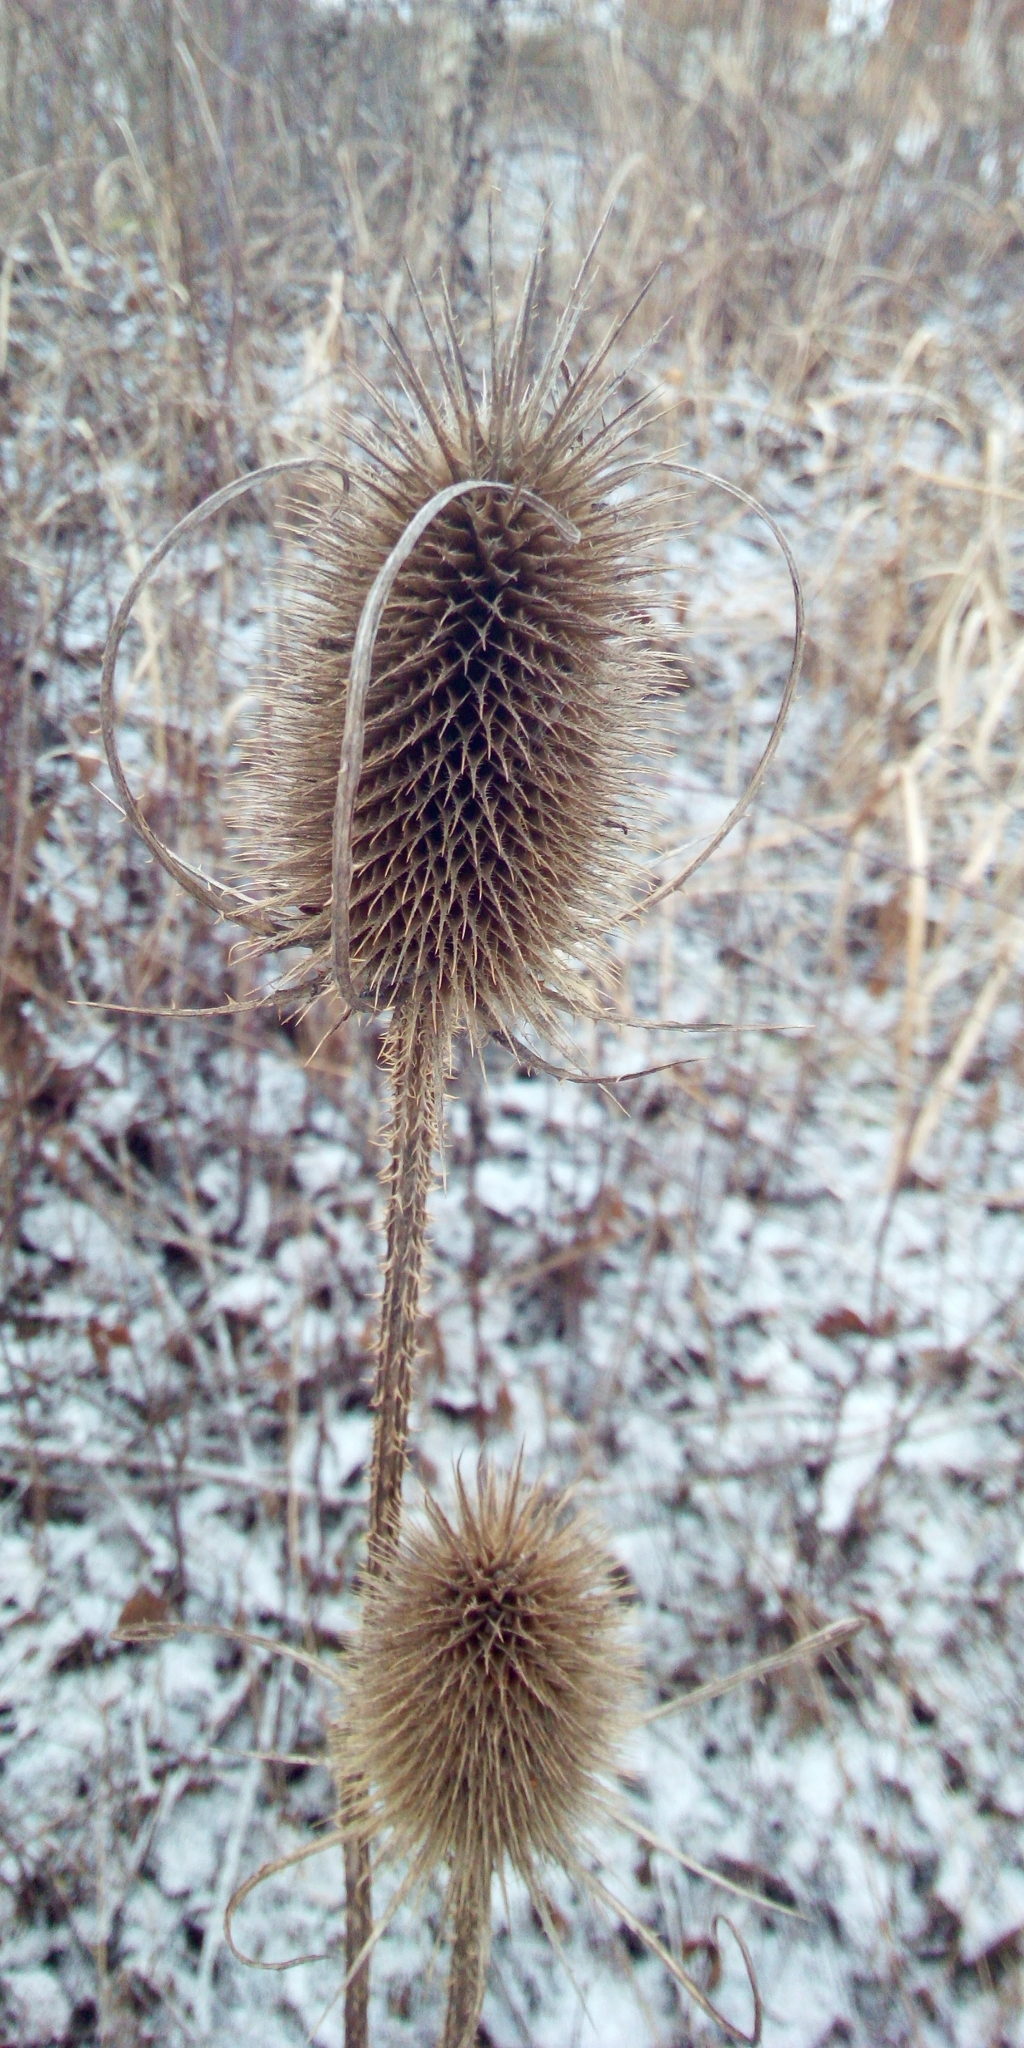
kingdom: Plantae
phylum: Tracheophyta
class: Magnoliopsida
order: Dipsacales
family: Caprifoliaceae
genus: Dipsacus
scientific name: Dipsacus fullonum
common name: Teasel
